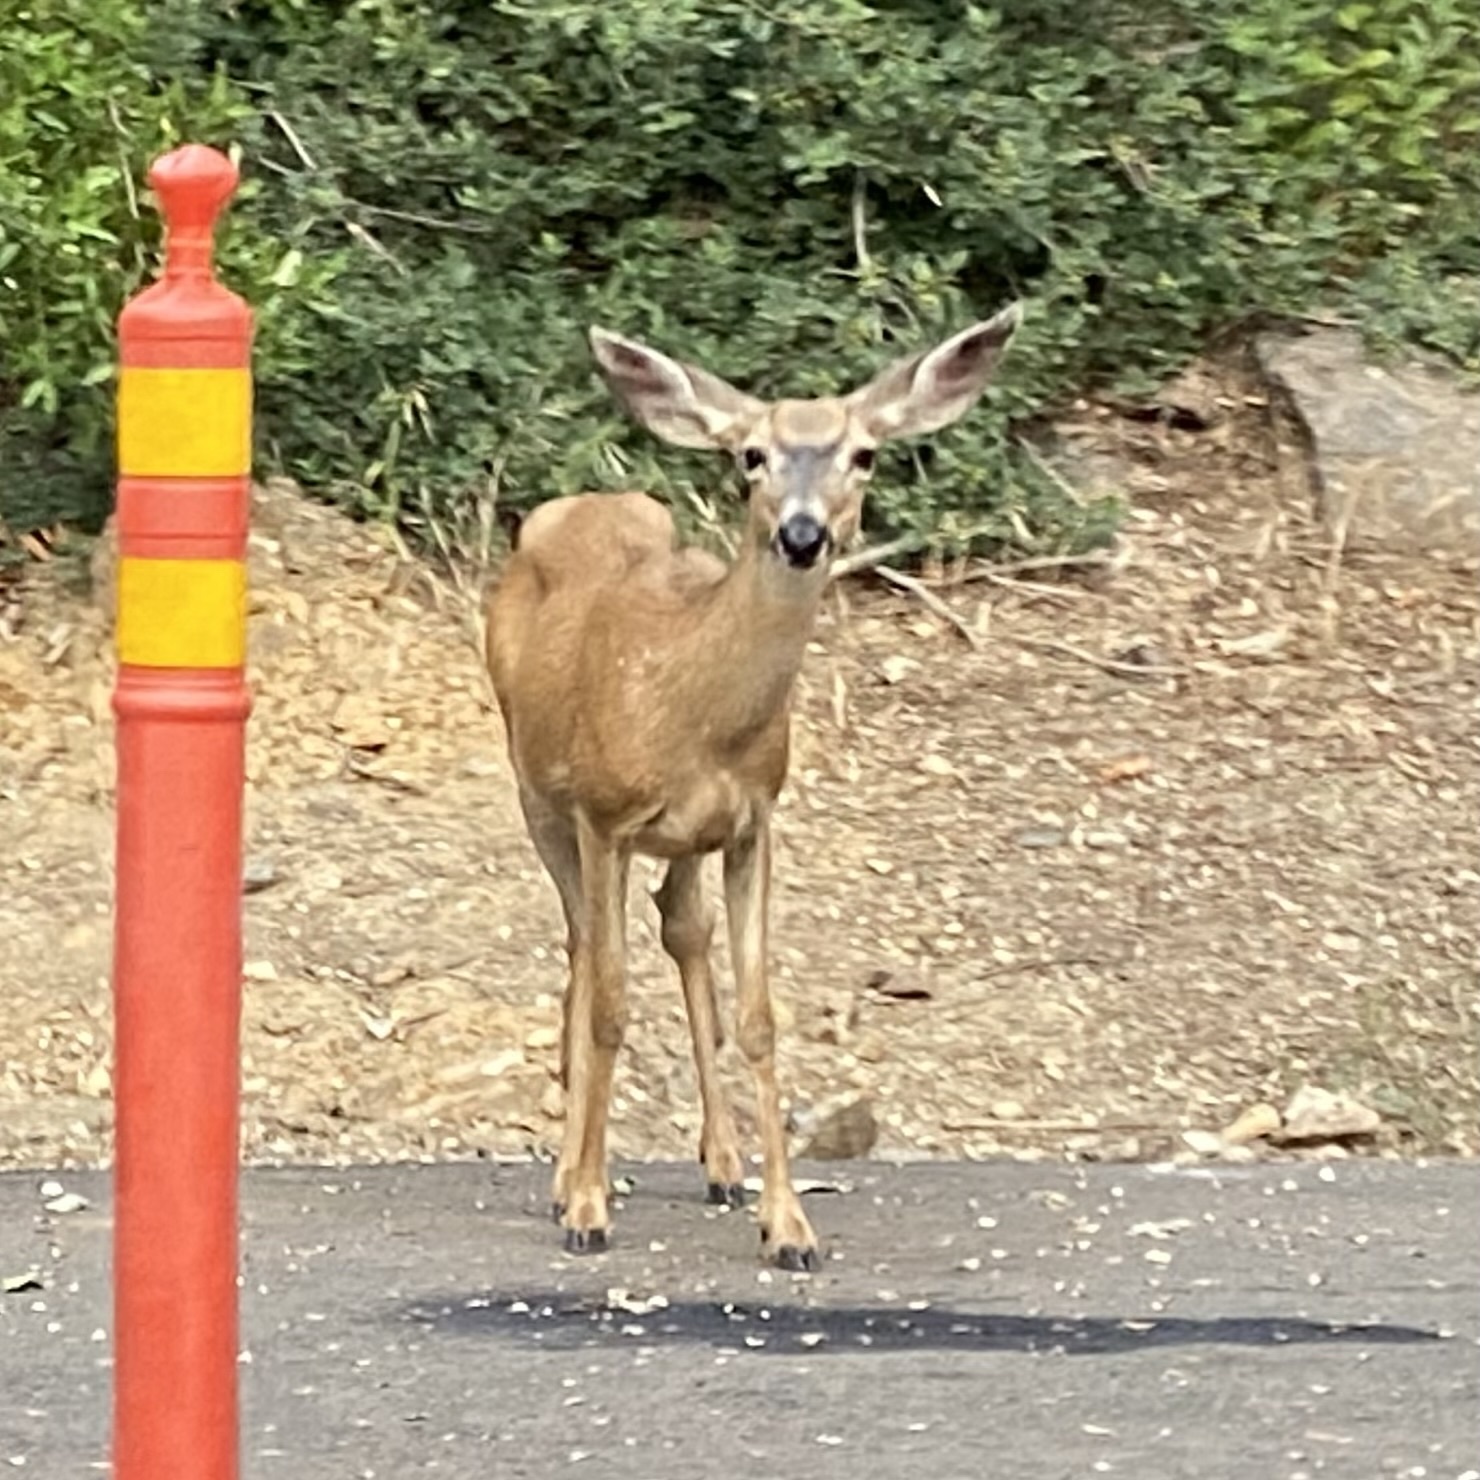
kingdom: Animalia
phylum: Chordata
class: Mammalia
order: Artiodactyla
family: Cervidae
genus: Odocoileus
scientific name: Odocoileus hemionus
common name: Mule deer
